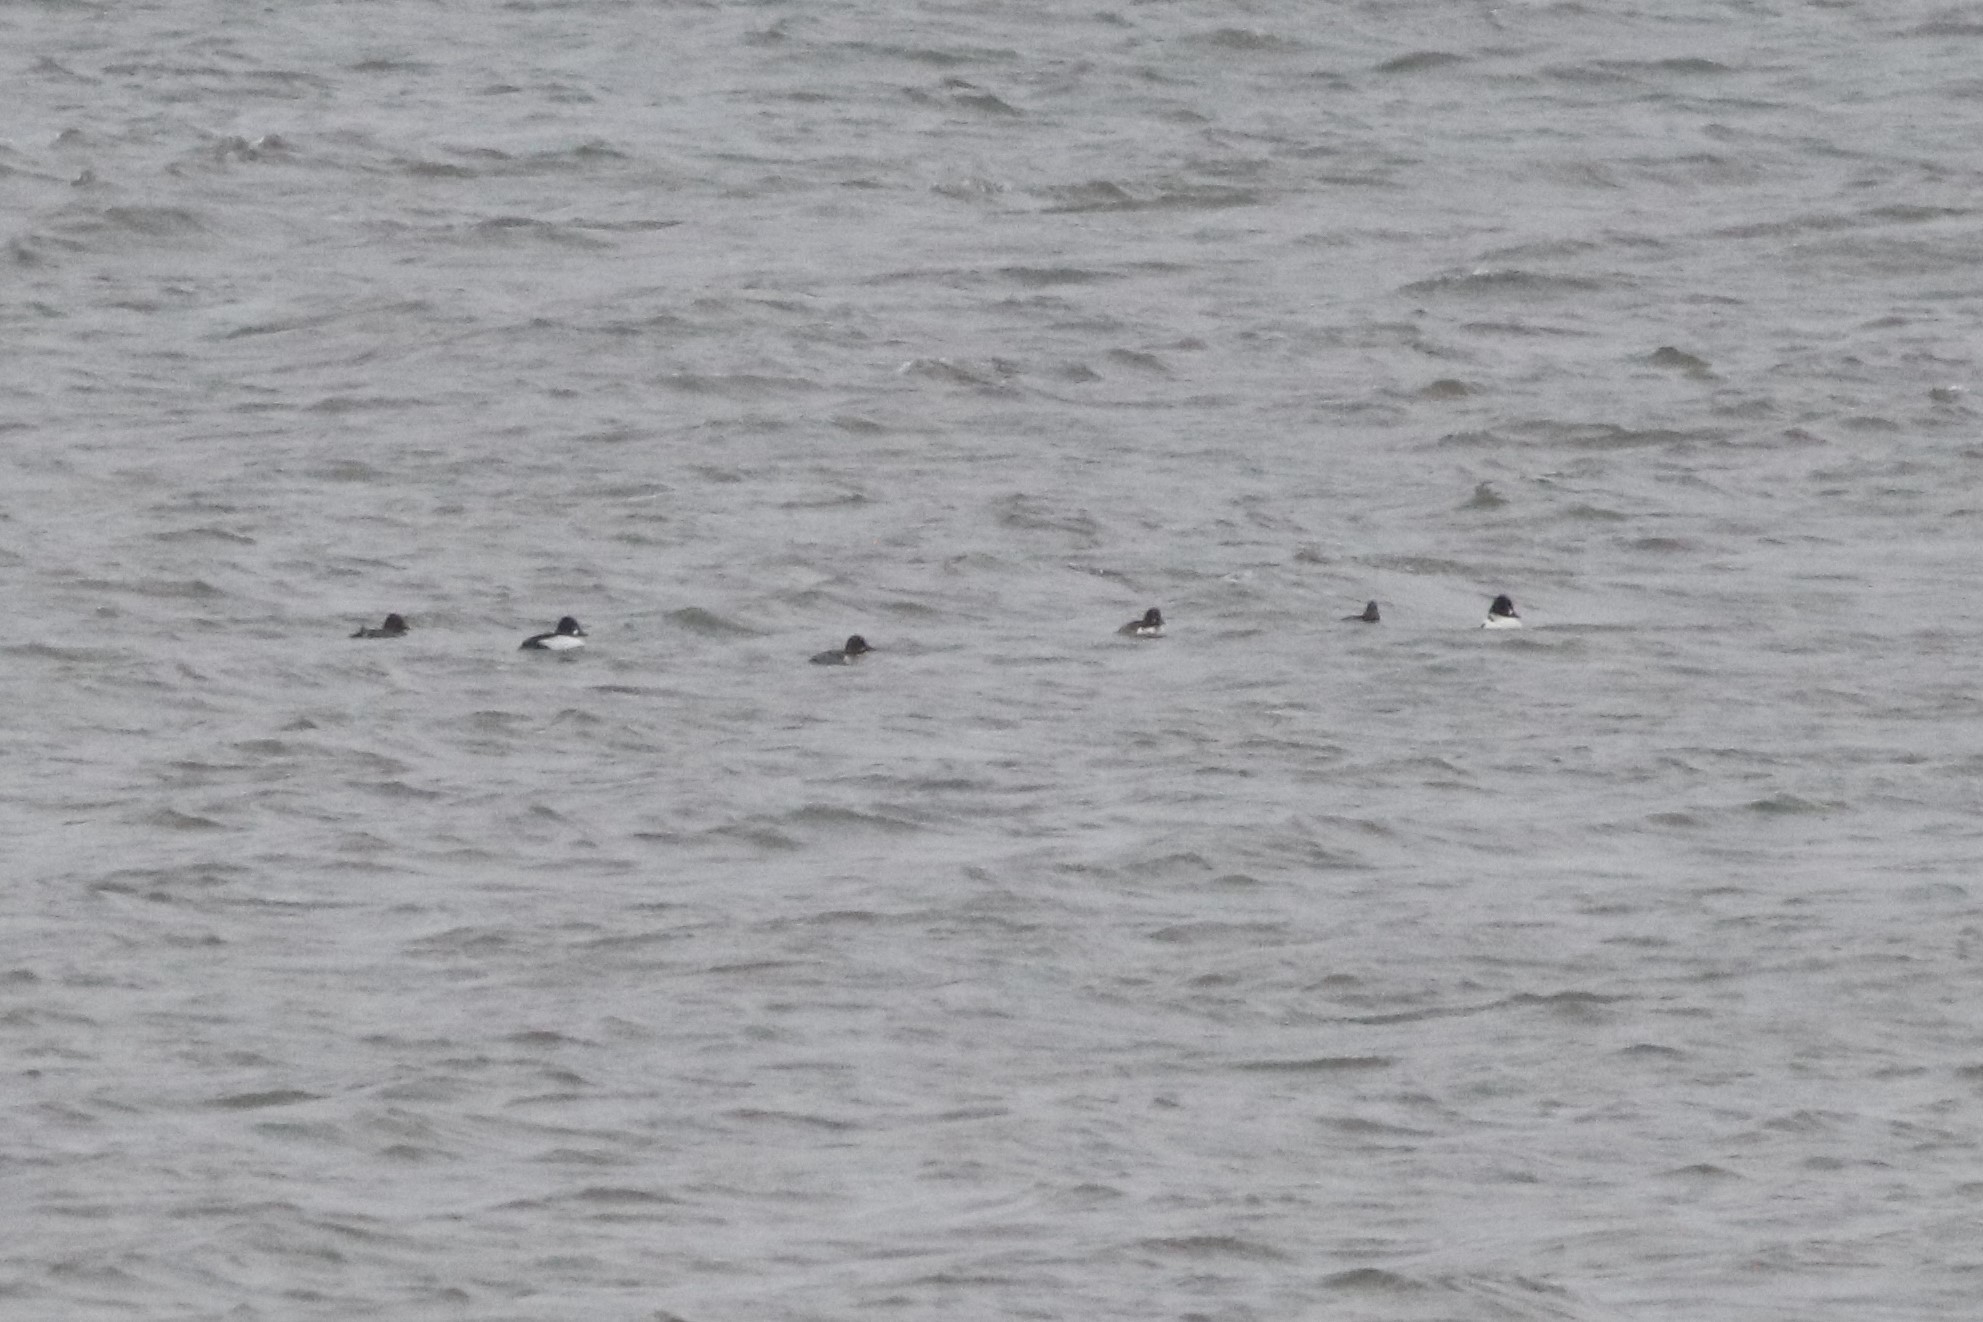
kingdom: Animalia
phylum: Chordata
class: Aves
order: Anseriformes
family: Anatidae
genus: Bucephala
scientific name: Bucephala clangula
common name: Common goldeneye
